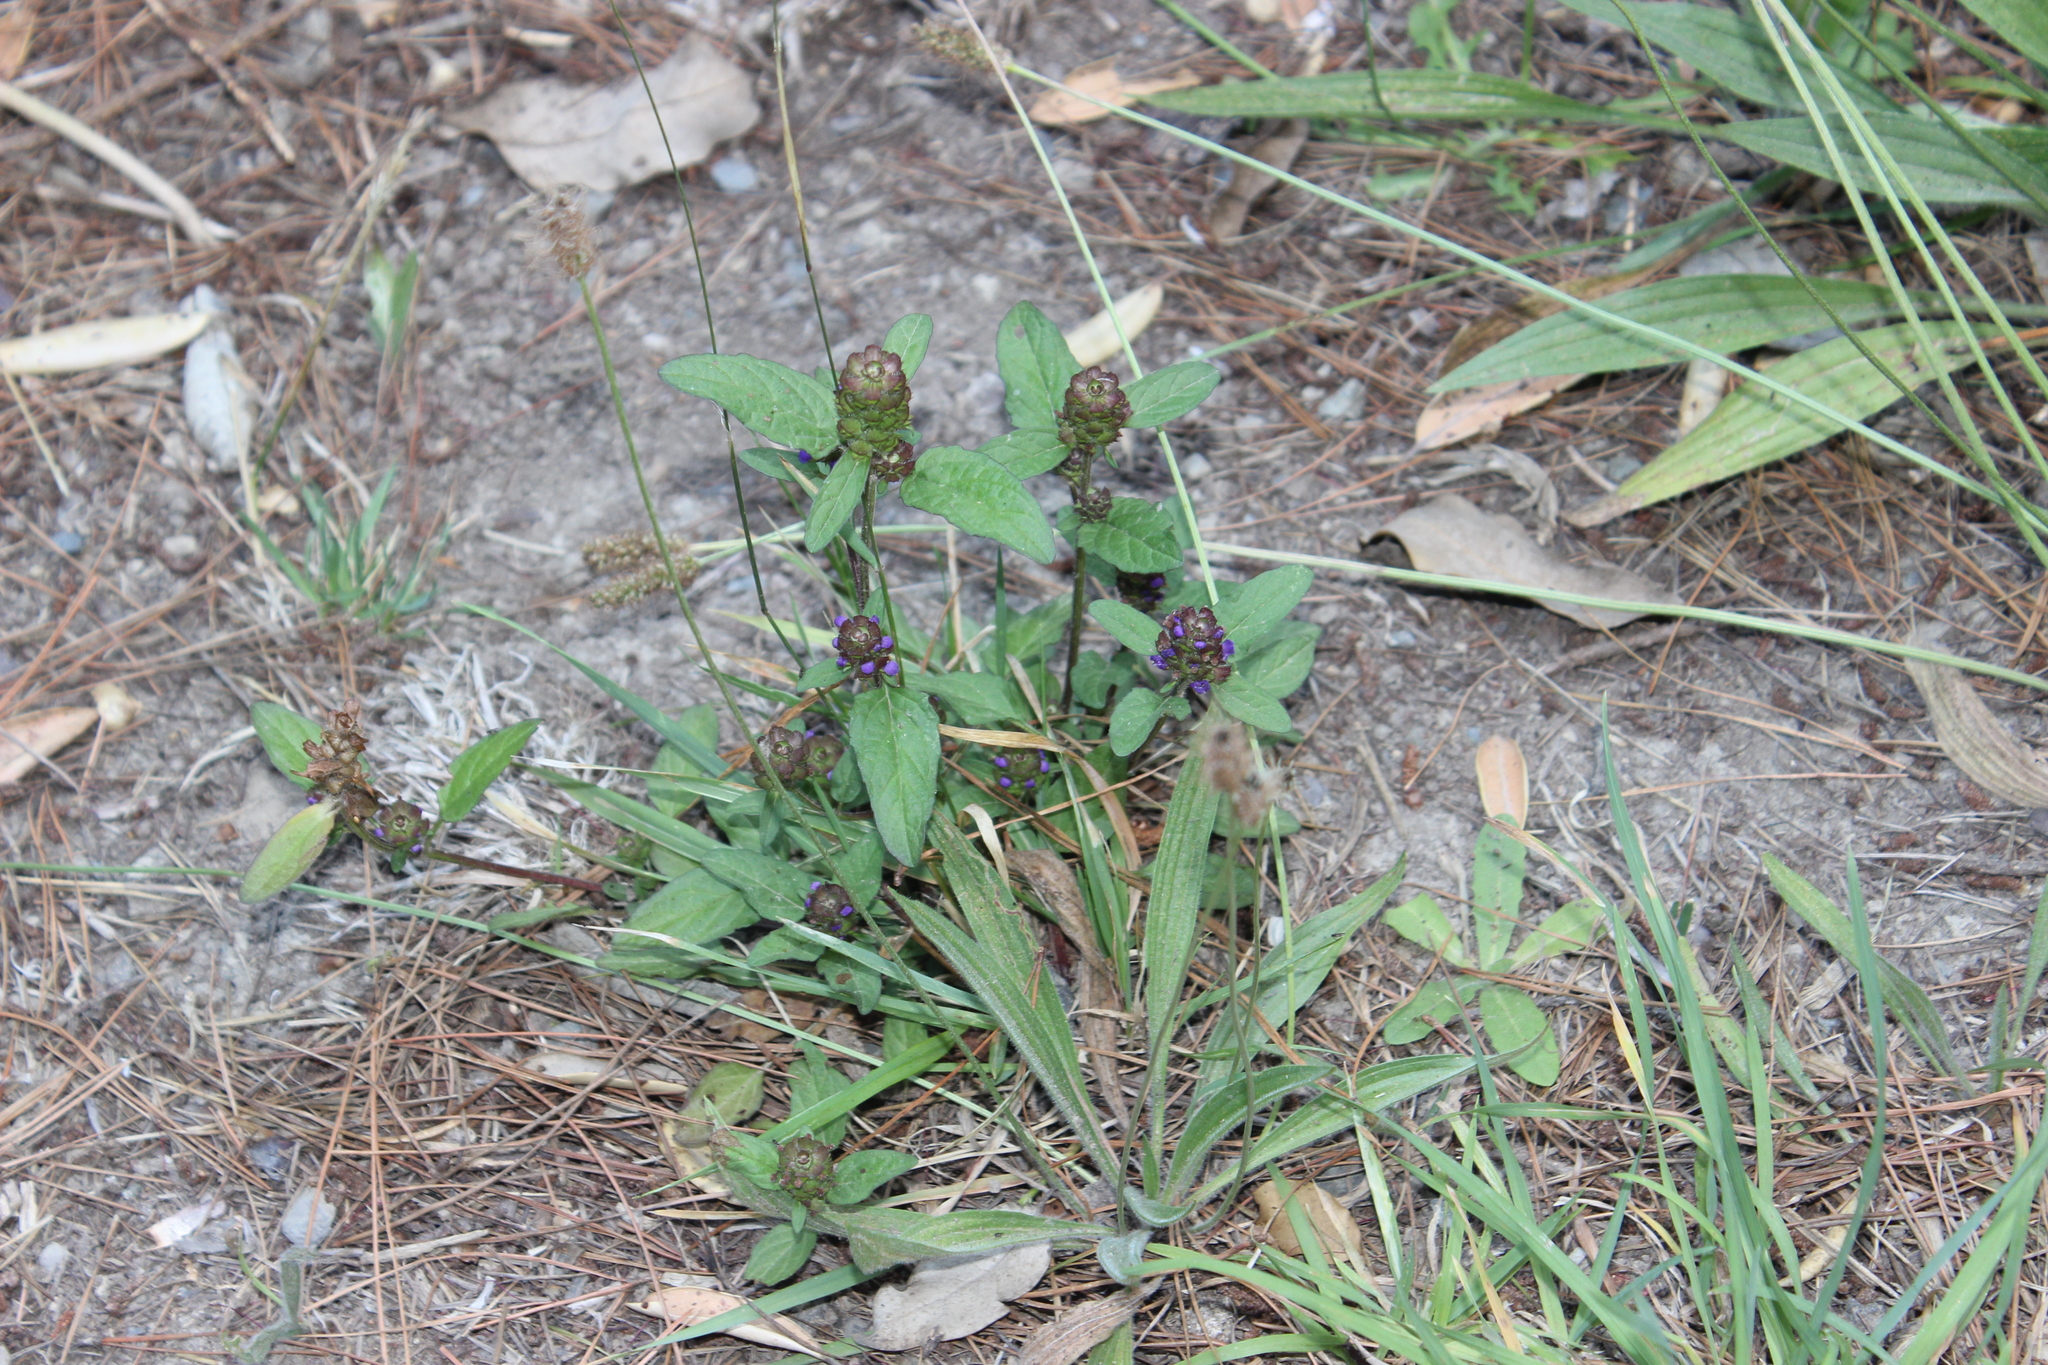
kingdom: Plantae
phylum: Tracheophyta
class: Magnoliopsida
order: Lamiales
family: Lamiaceae
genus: Prunella
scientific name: Prunella vulgaris
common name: Heal-all
